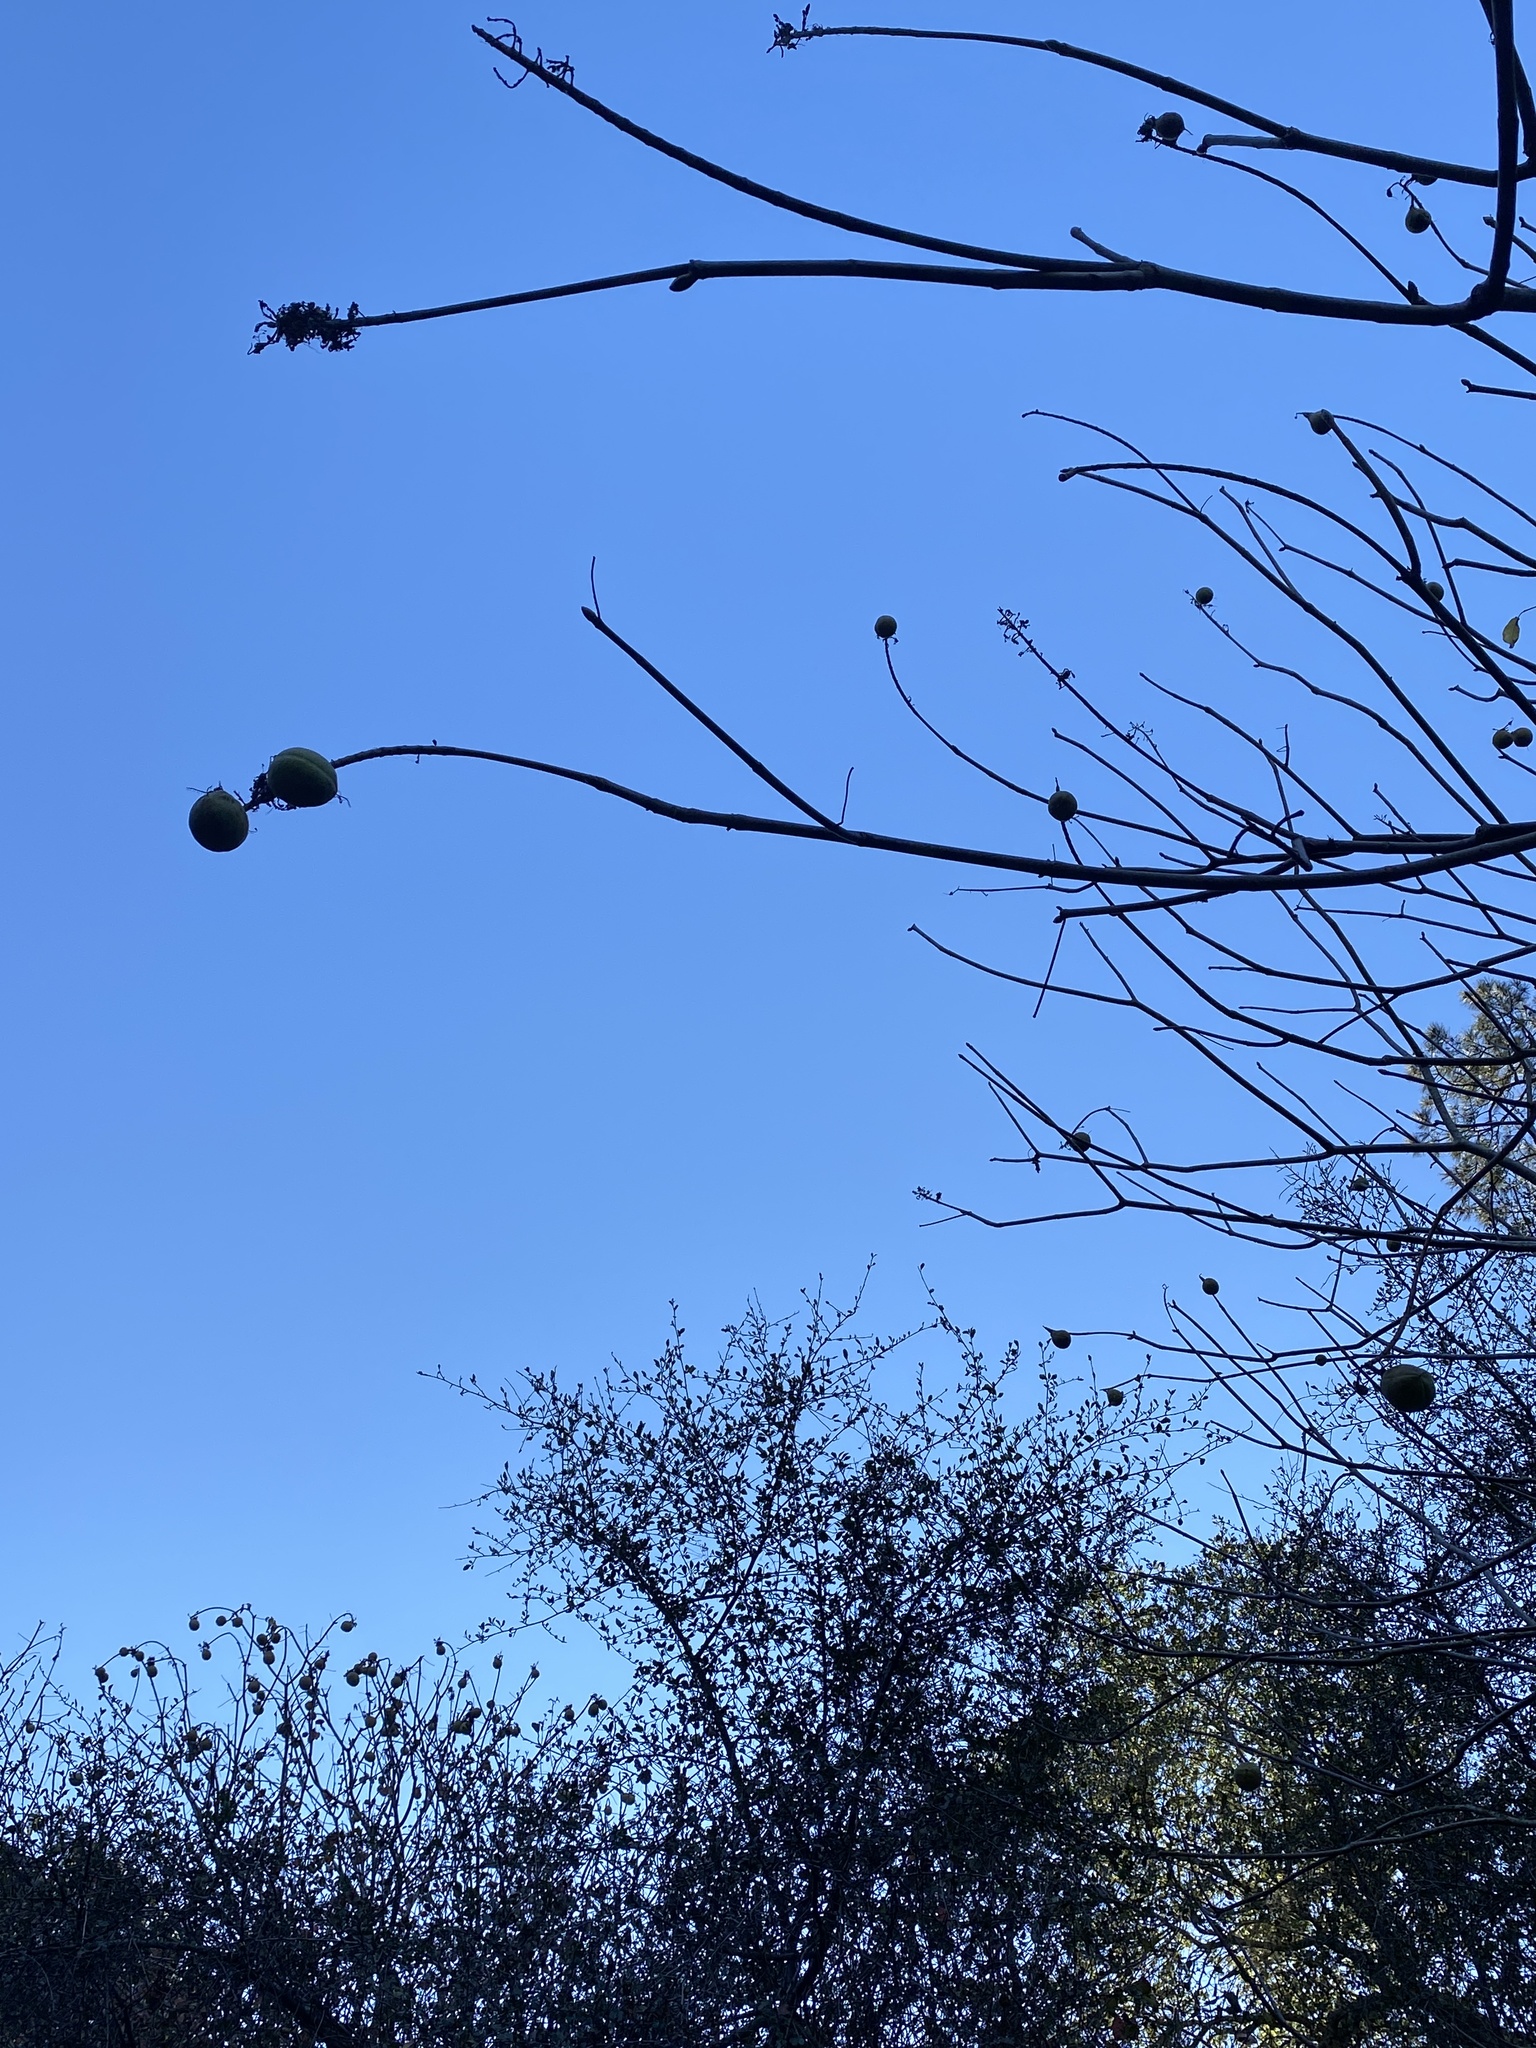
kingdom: Plantae
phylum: Tracheophyta
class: Magnoliopsida
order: Sapindales
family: Sapindaceae
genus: Aesculus
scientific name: Aesculus californica
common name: California buckeye
